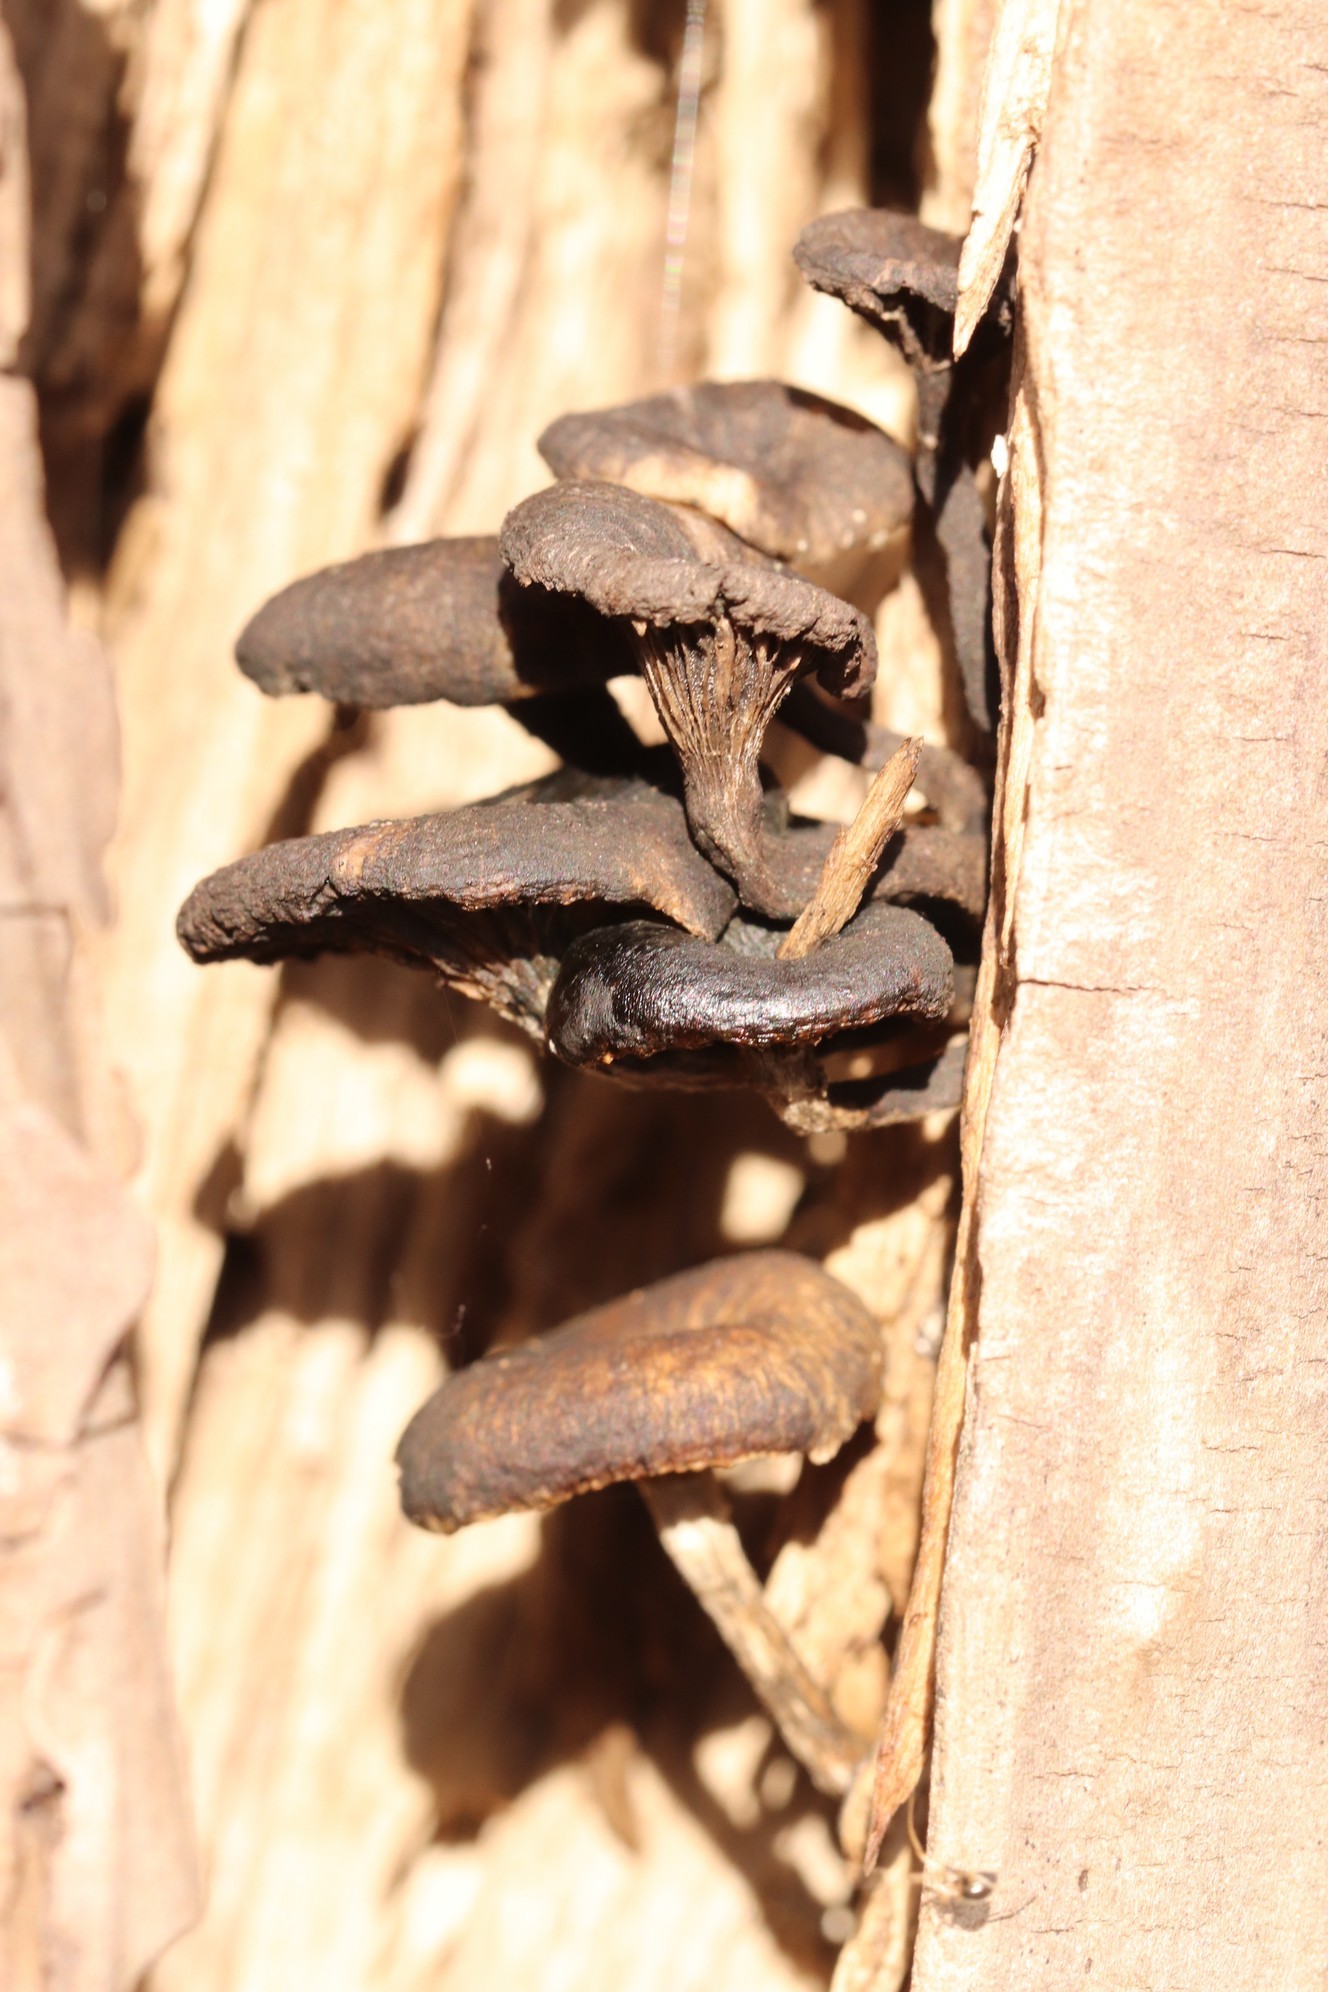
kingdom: Fungi
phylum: Basidiomycota
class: Agaricomycetes
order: Polyporales
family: Polyporaceae
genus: Lentinus
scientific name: Lentinus tigrinus
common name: Tiger sawgill
